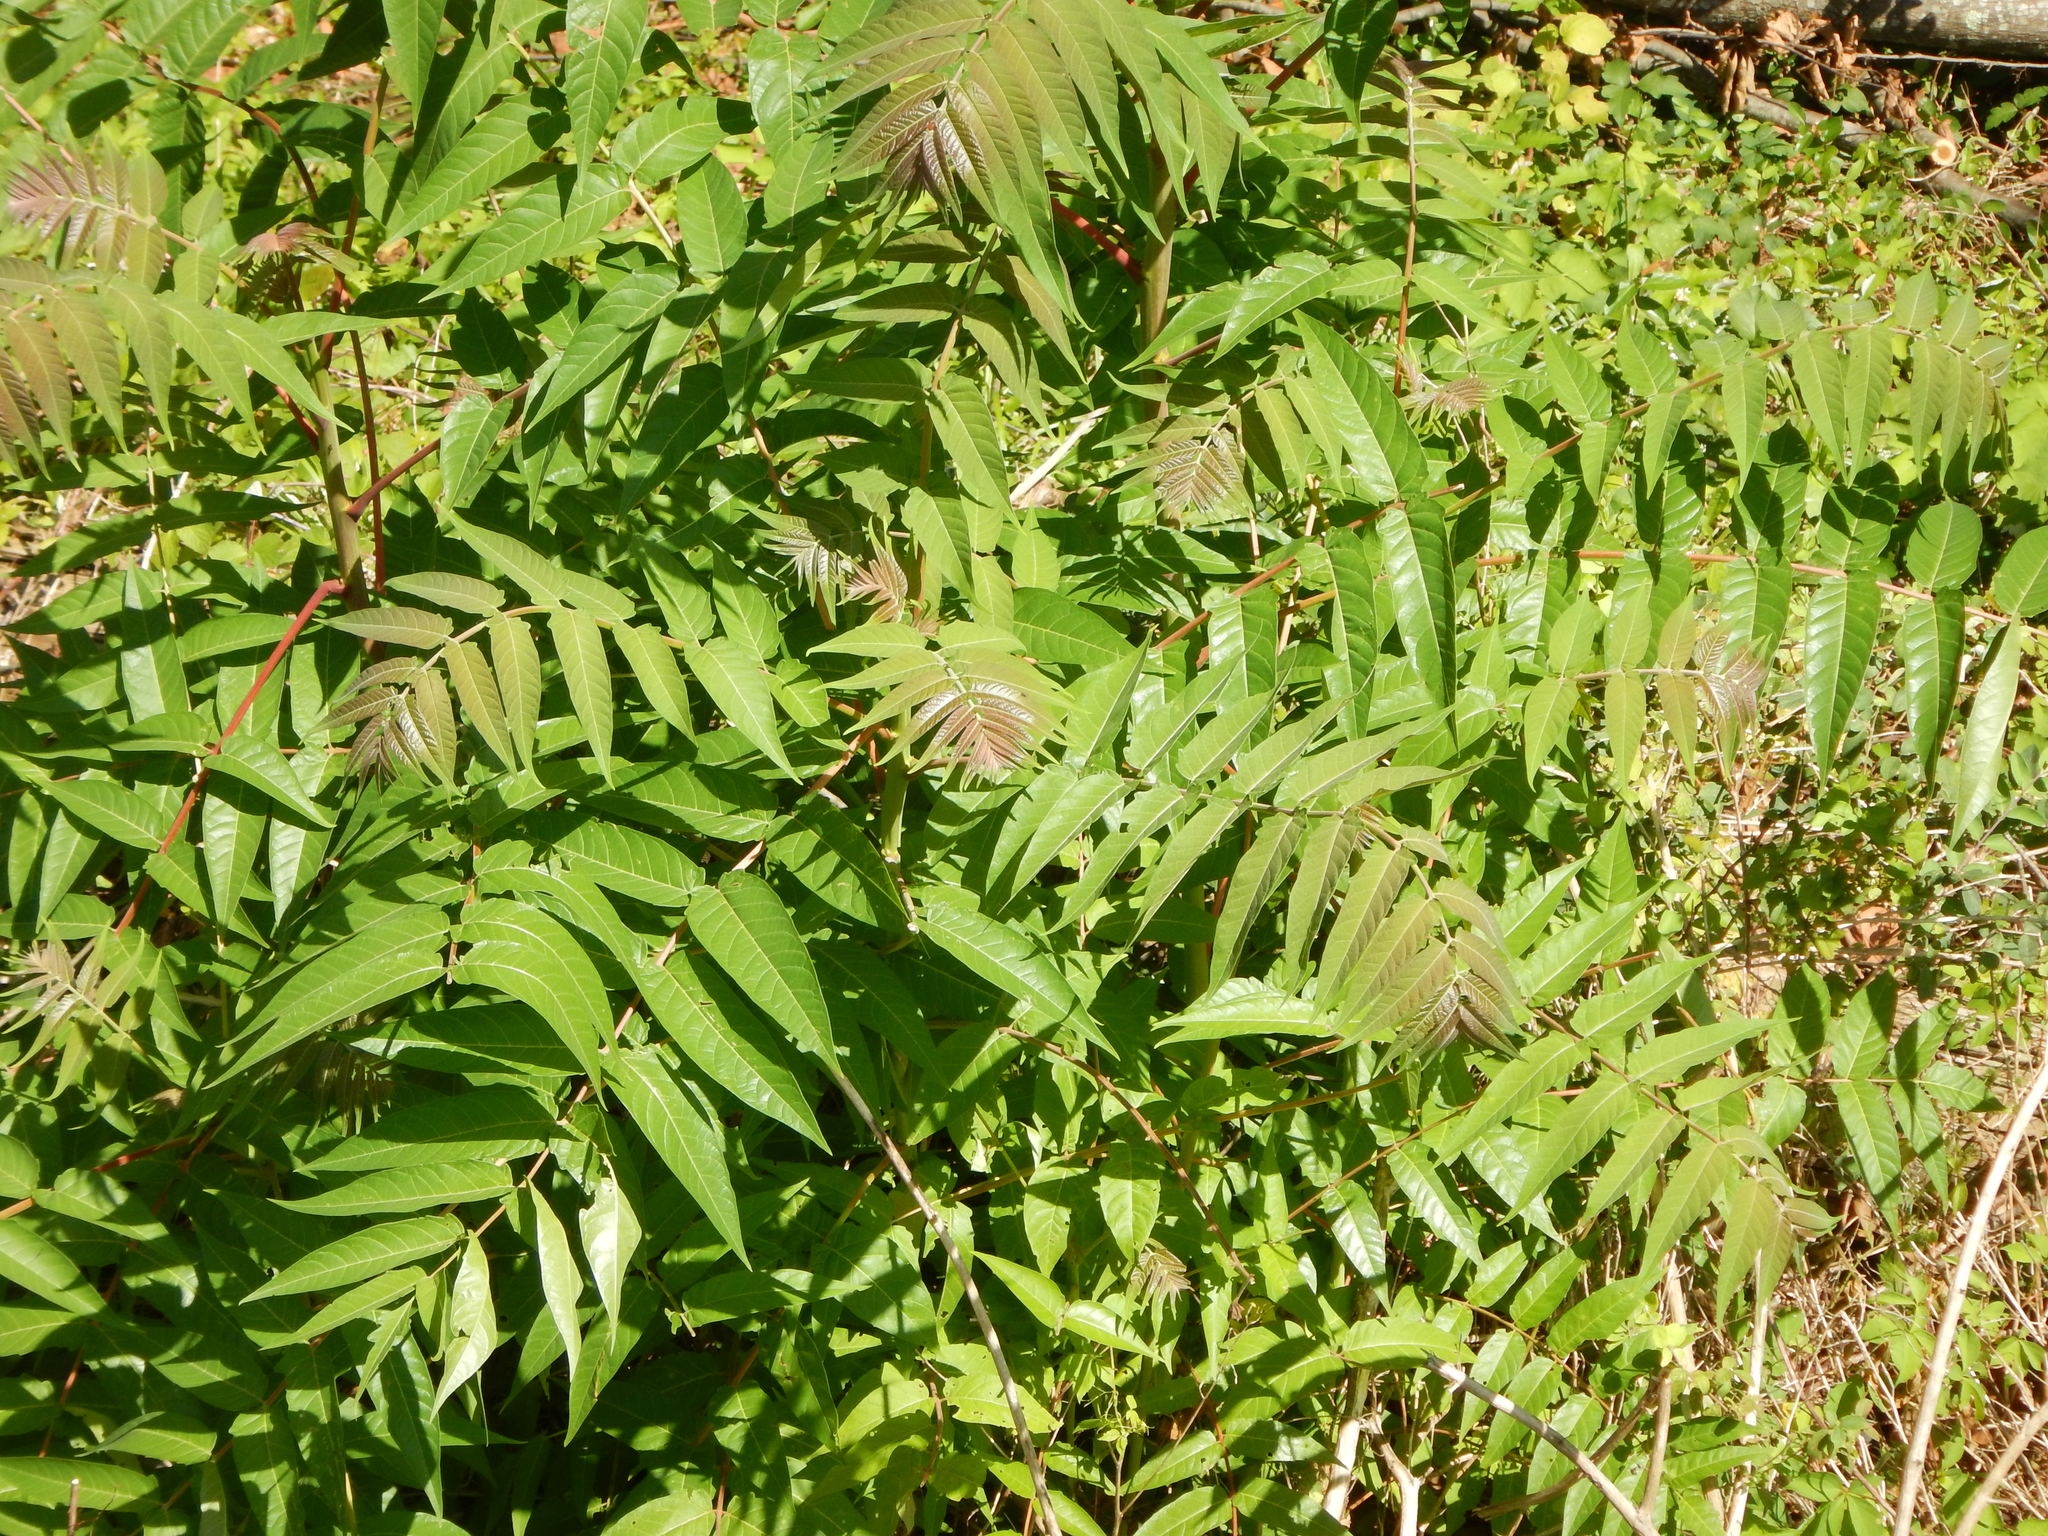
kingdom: Plantae
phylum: Tracheophyta
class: Magnoliopsida
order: Sapindales
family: Simaroubaceae
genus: Ailanthus
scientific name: Ailanthus altissima
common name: Tree-of-heaven
